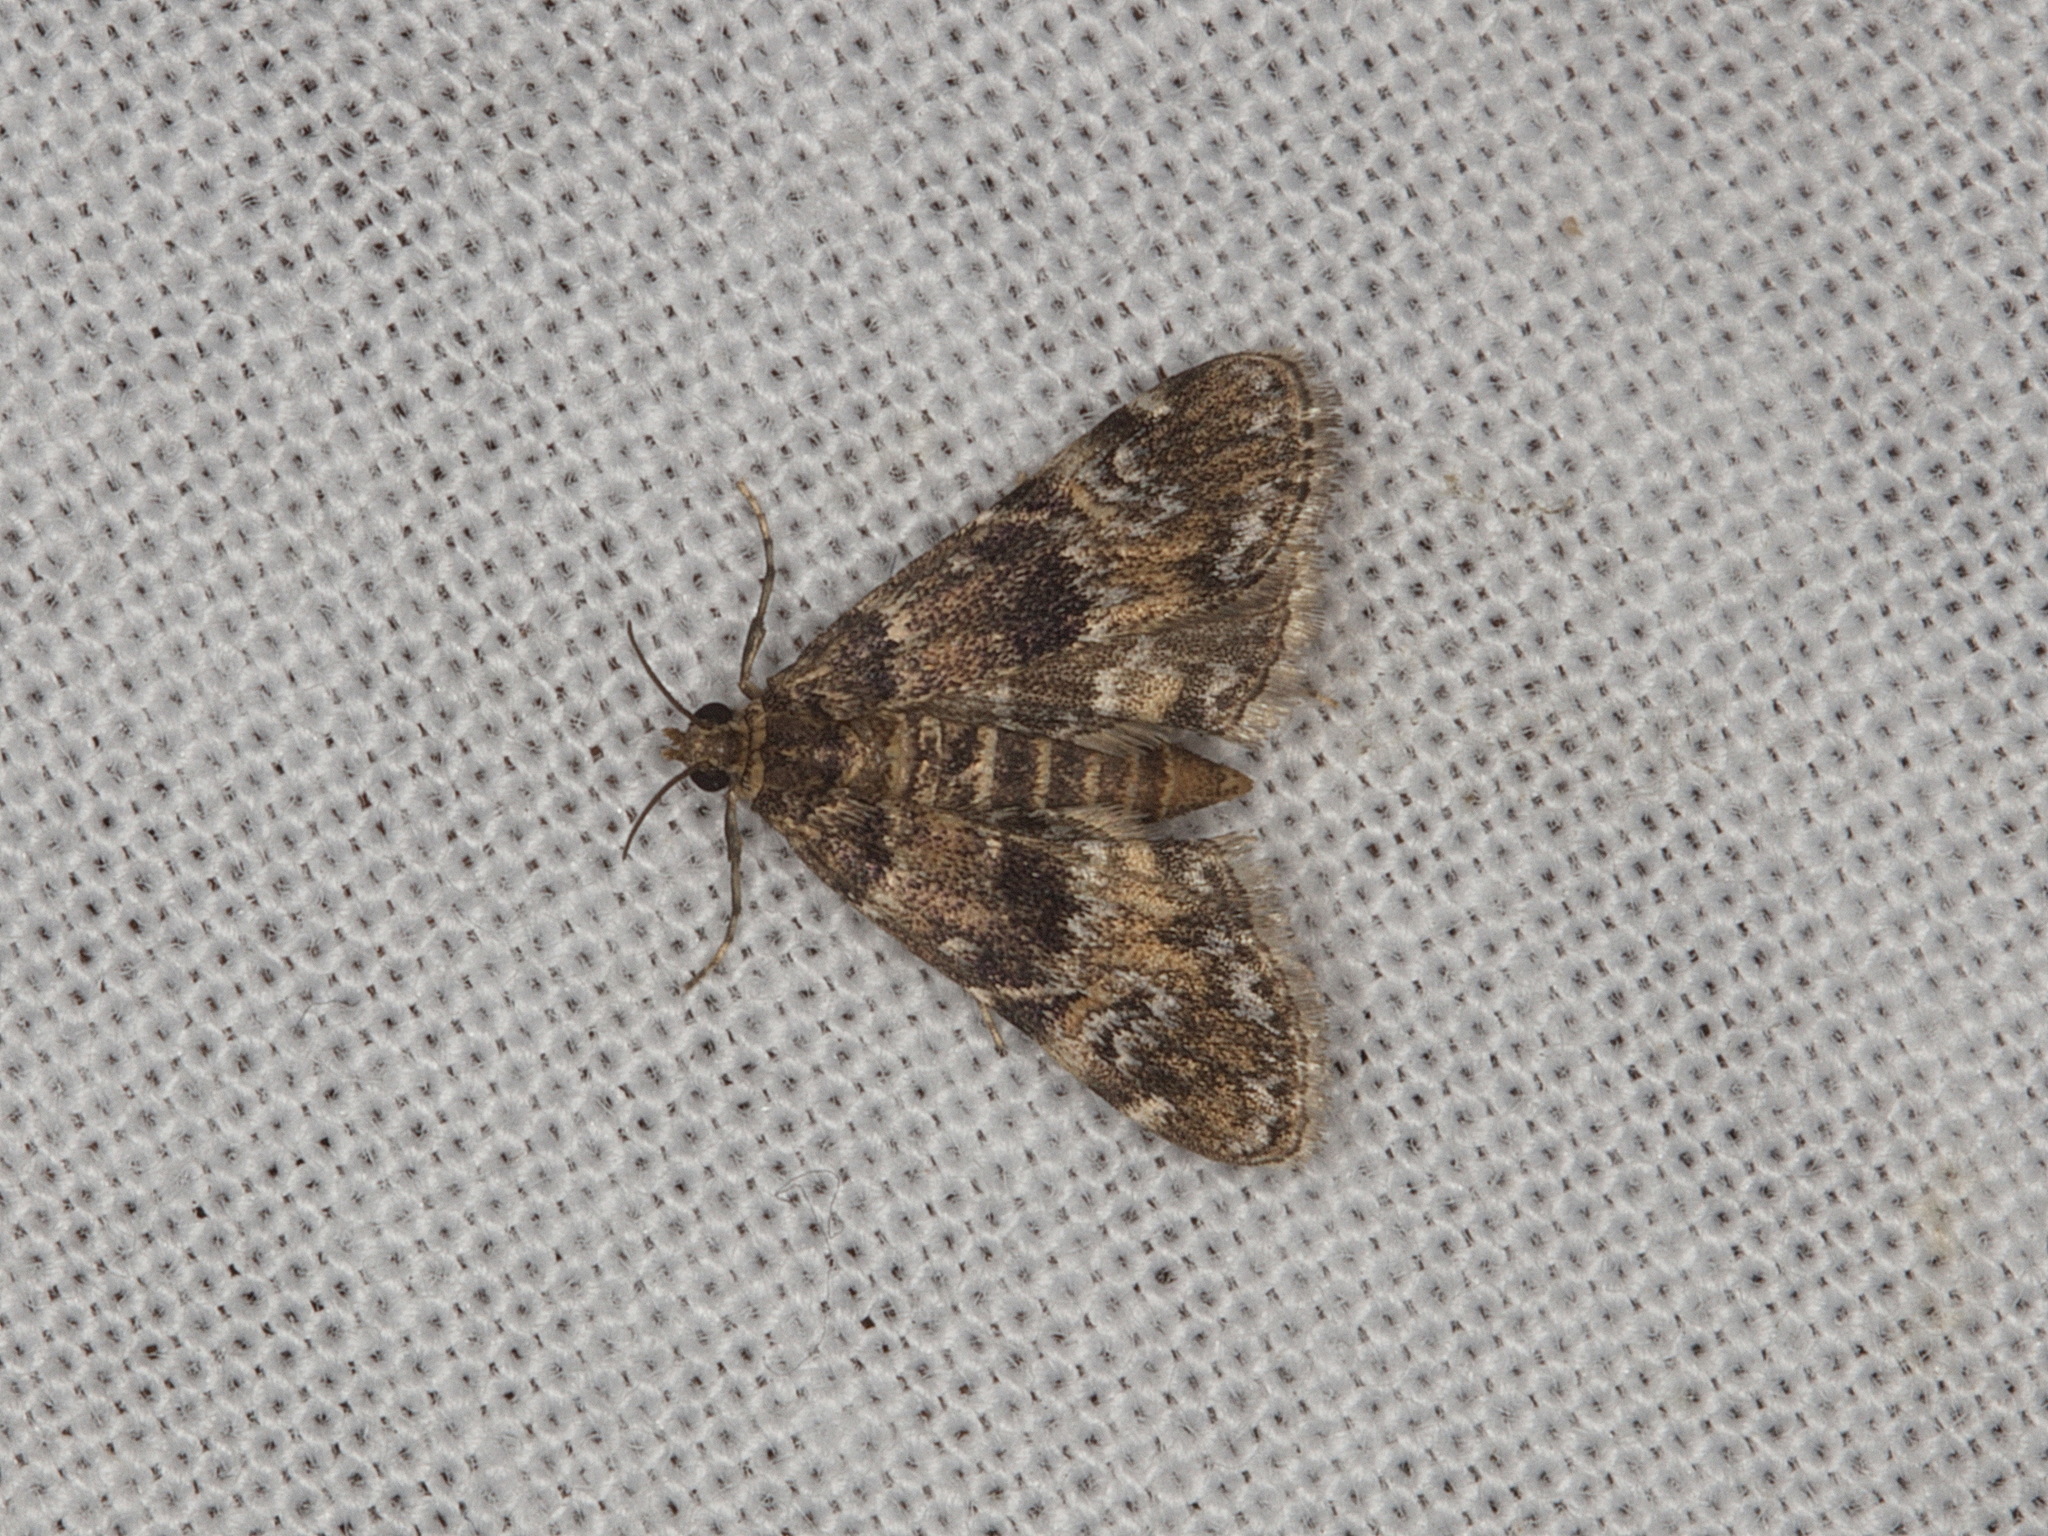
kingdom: Animalia
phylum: Arthropoda
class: Insecta
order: Lepidoptera
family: Crambidae
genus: Elophila
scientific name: Elophila obliteralis
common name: Waterlily leafcutter moth
